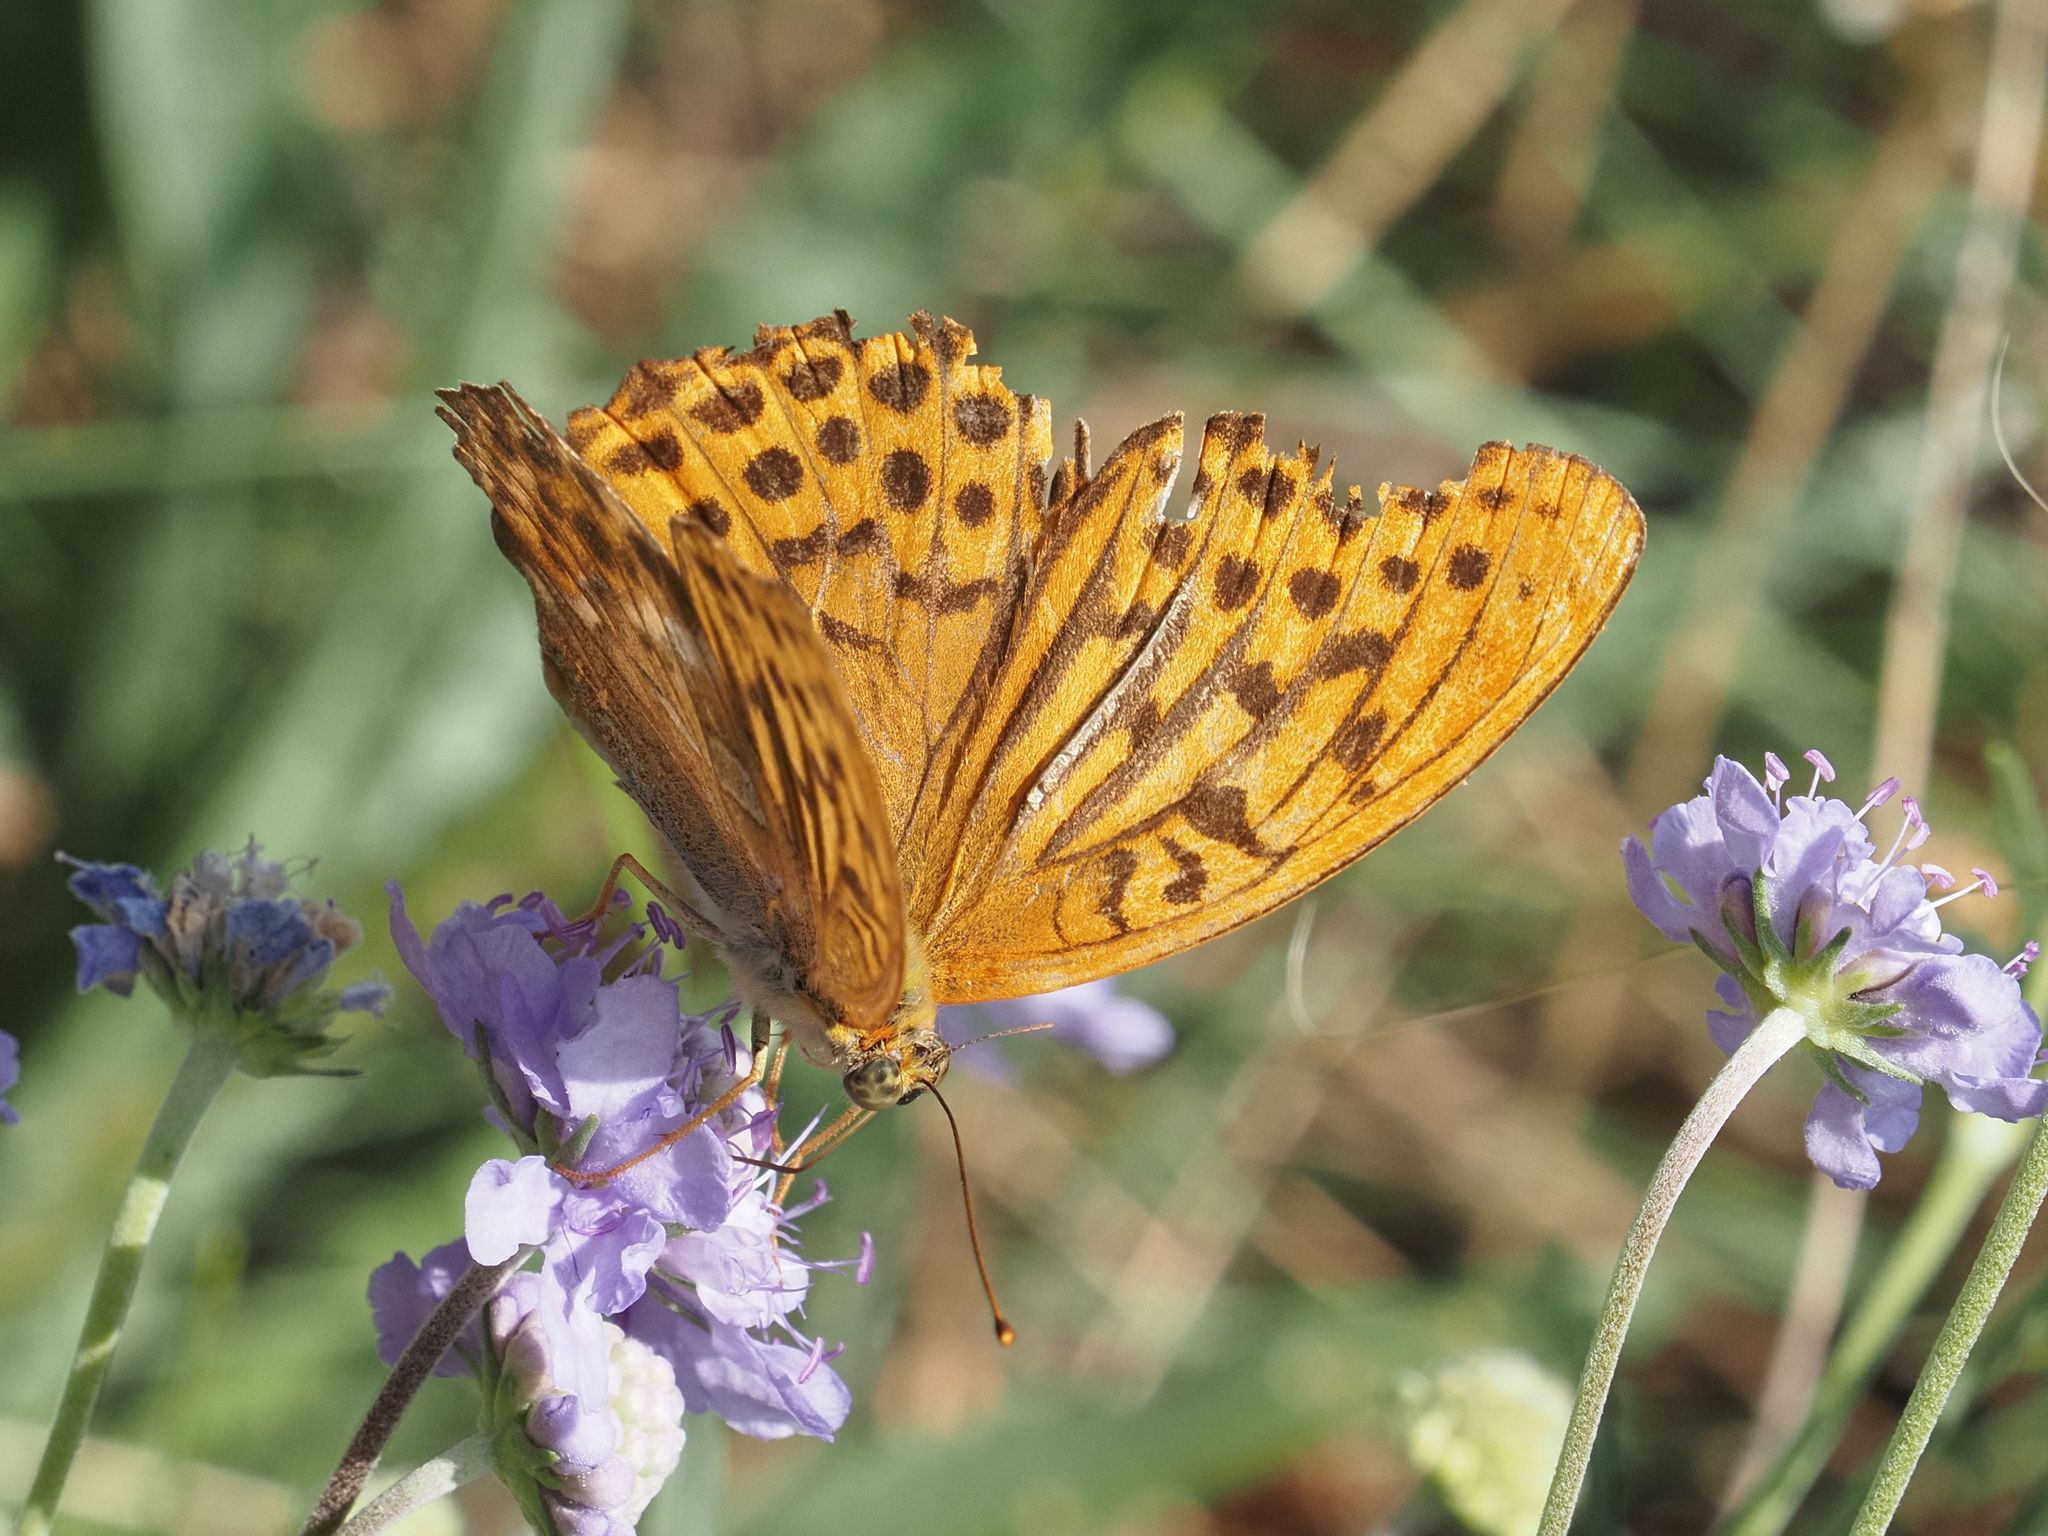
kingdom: Animalia
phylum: Arthropoda
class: Insecta
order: Lepidoptera
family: Nymphalidae
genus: Argynnis
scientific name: Argynnis paphia
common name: Silver-washed fritillary
